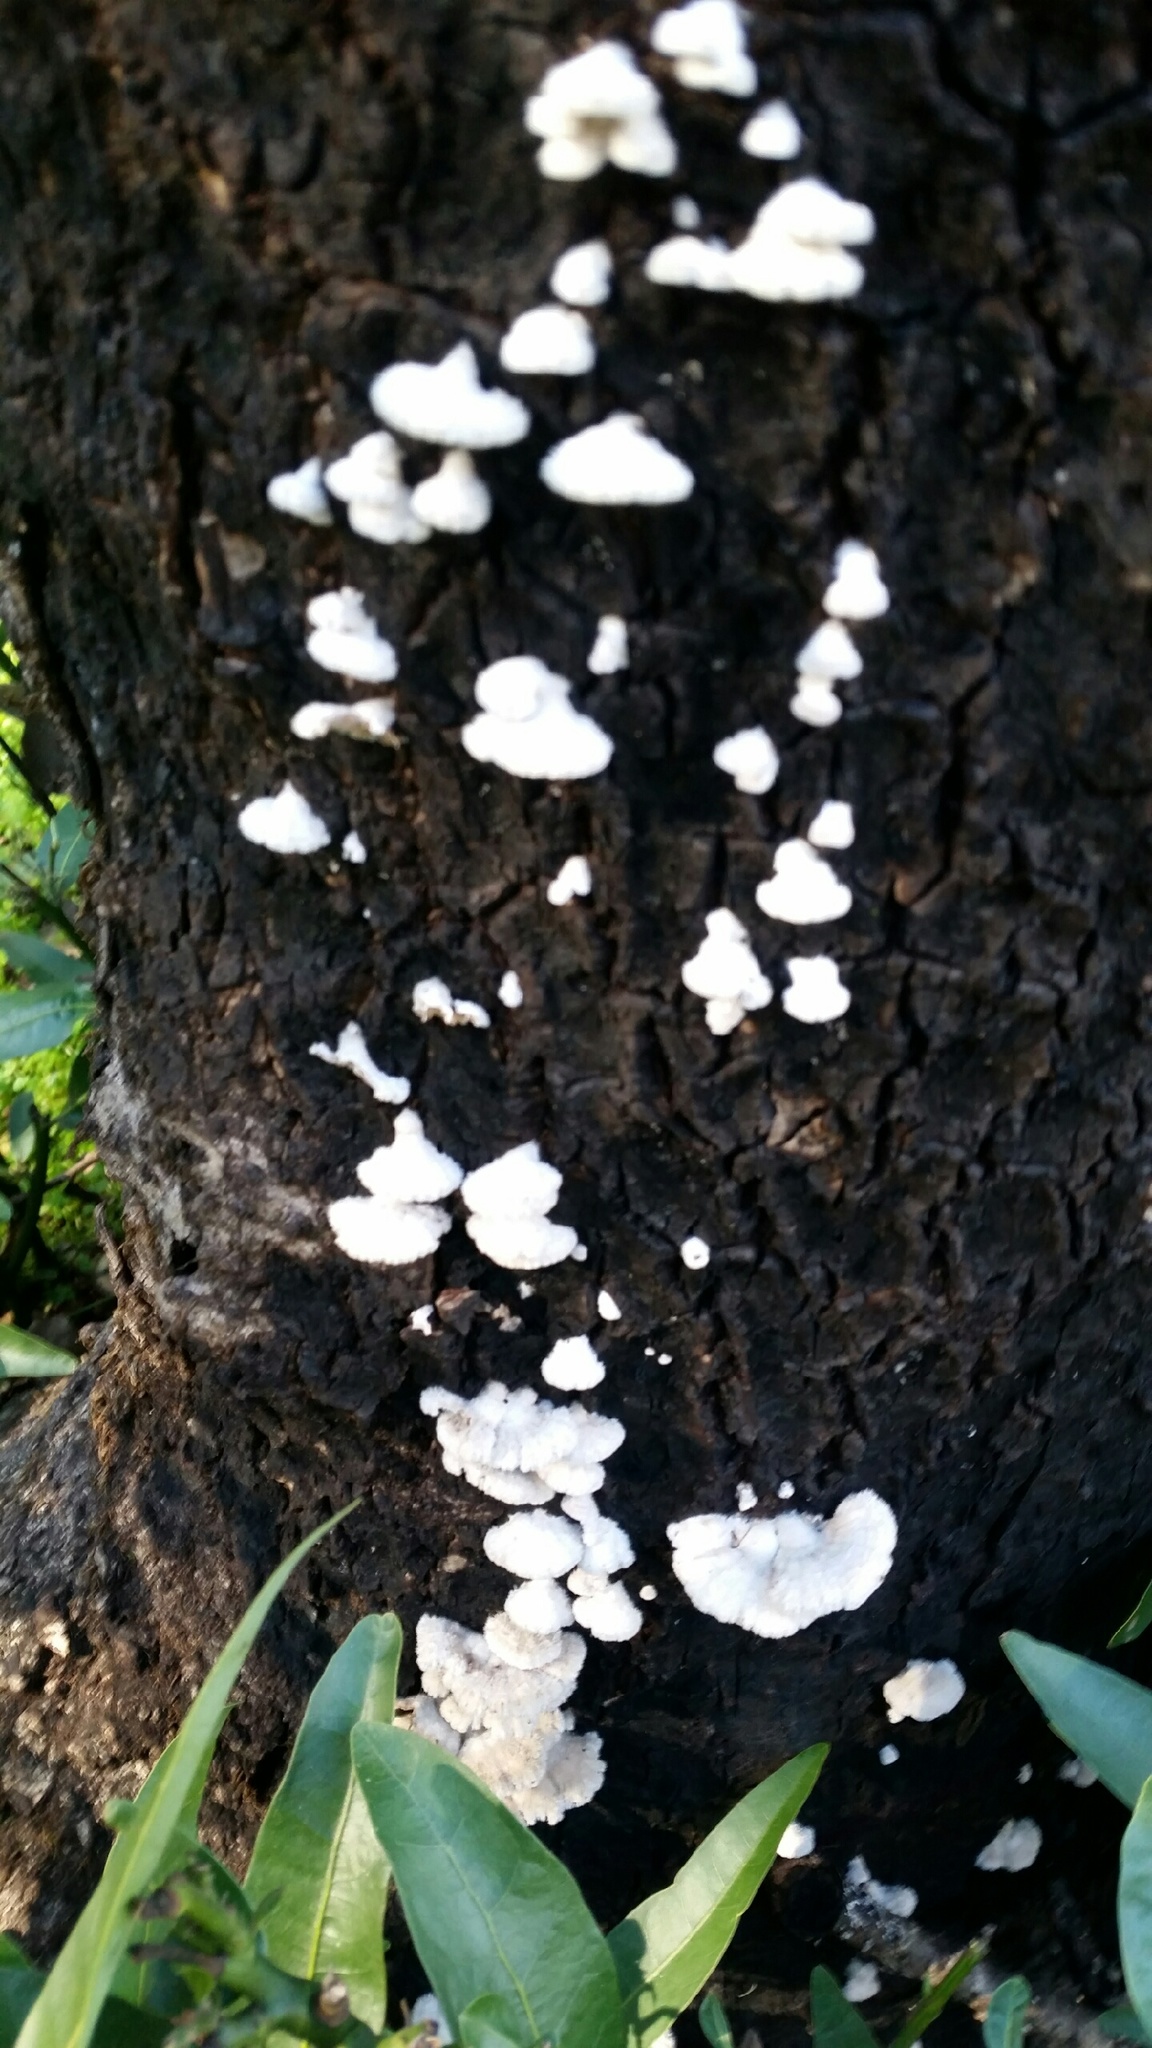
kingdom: Fungi
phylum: Basidiomycota
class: Agaricomycetes
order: Agaricales
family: Schizophyllaceae
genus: Schizophyllum
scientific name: Schizophyllum commune
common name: Common porecrust
